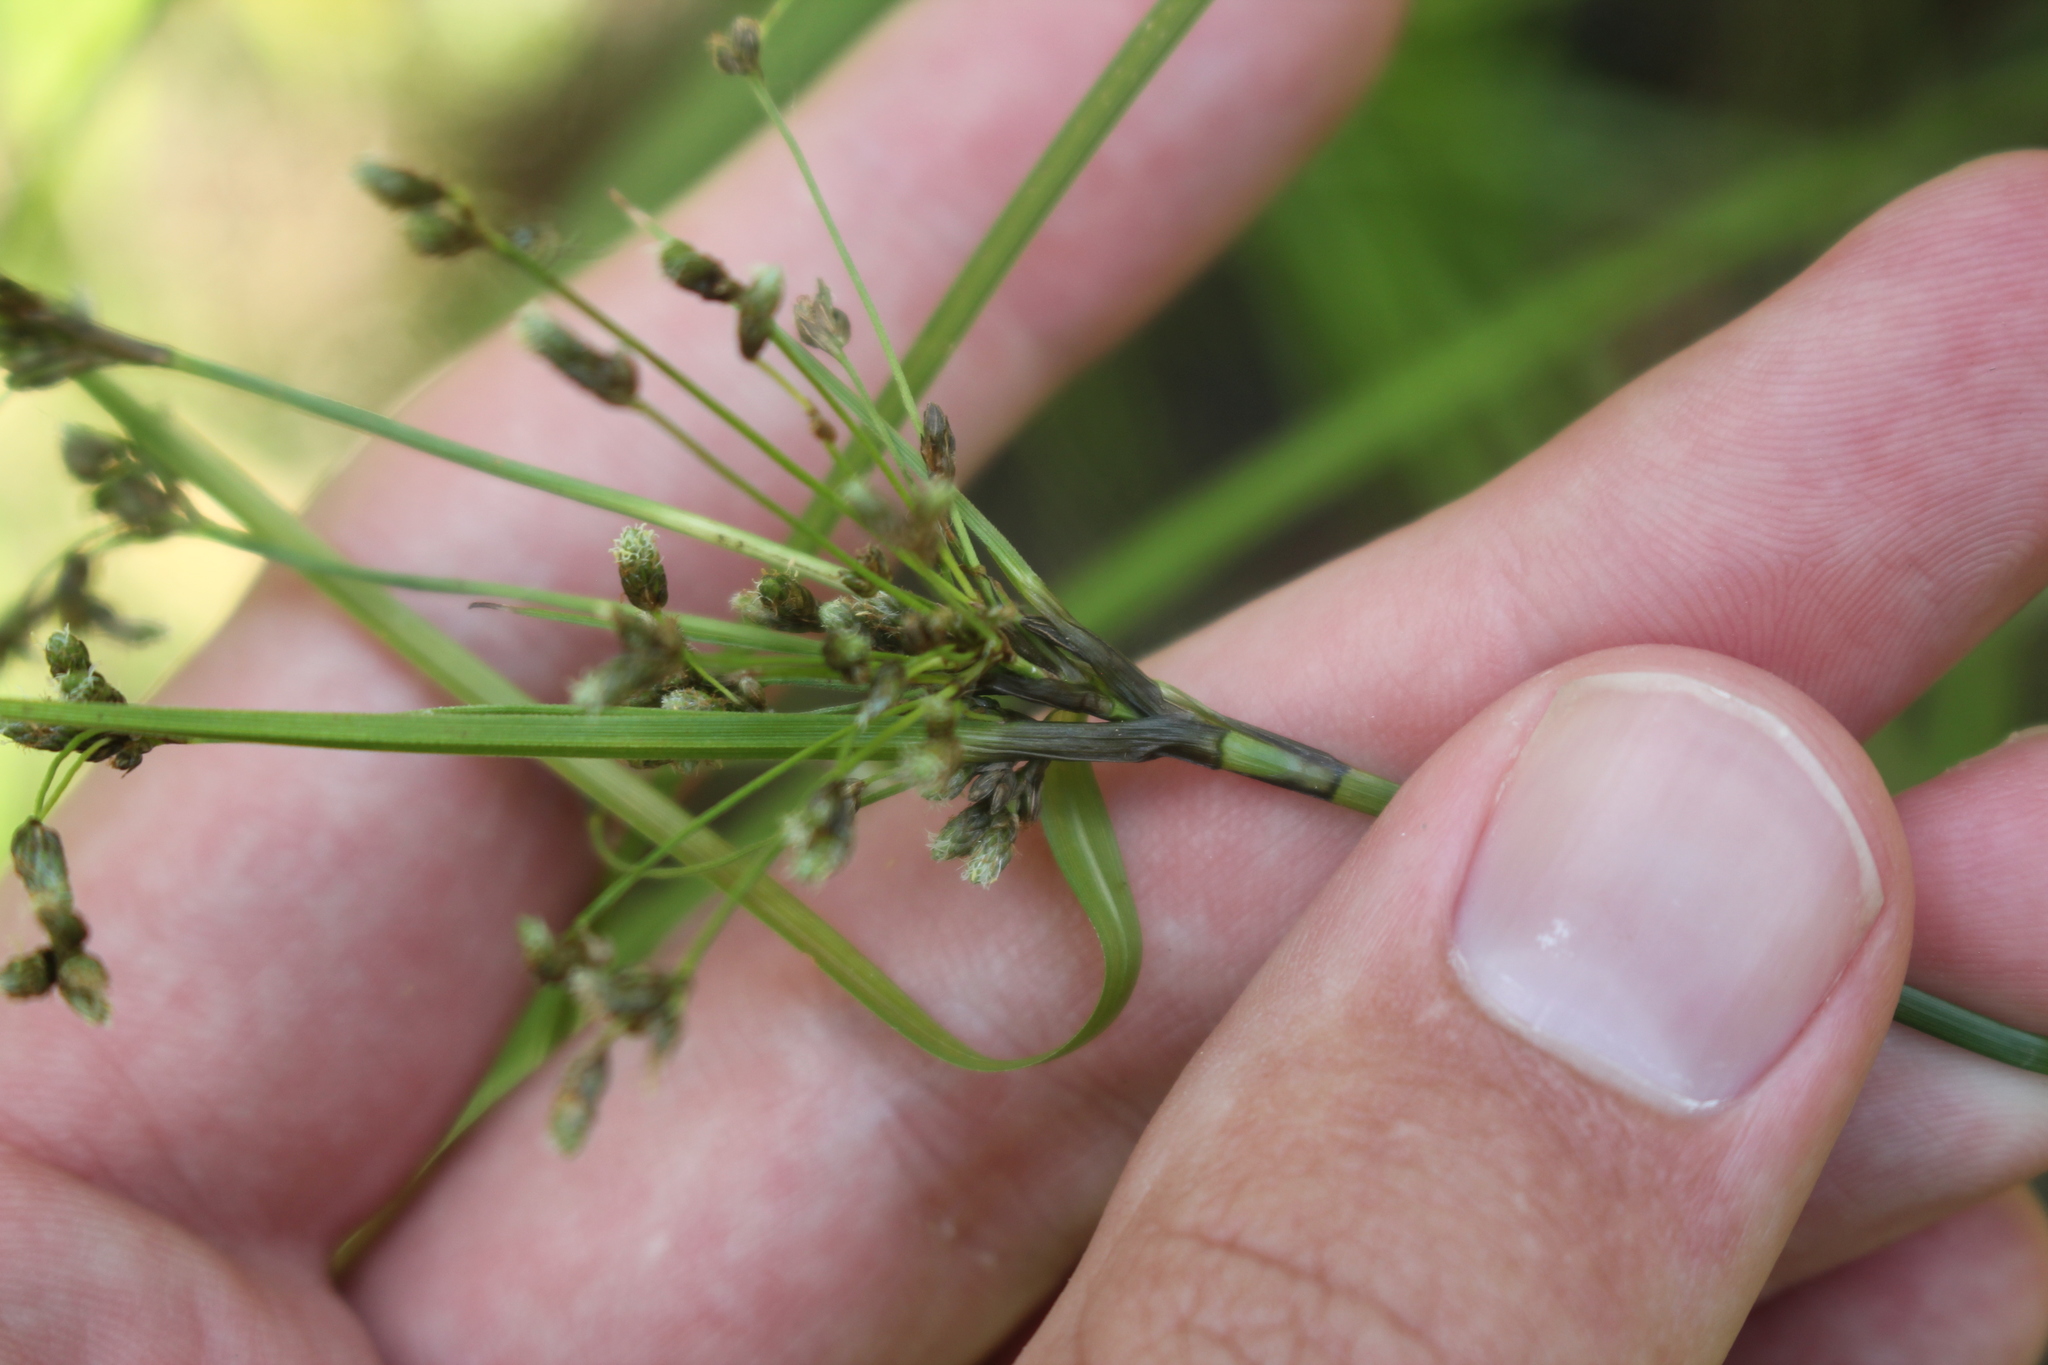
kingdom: Plantae
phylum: Tracheophyta
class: Liliopsida
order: Poales
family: Cyperaceae
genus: Scirpus
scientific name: Scirpus atrocinctus
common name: Black-girdled bulrush
